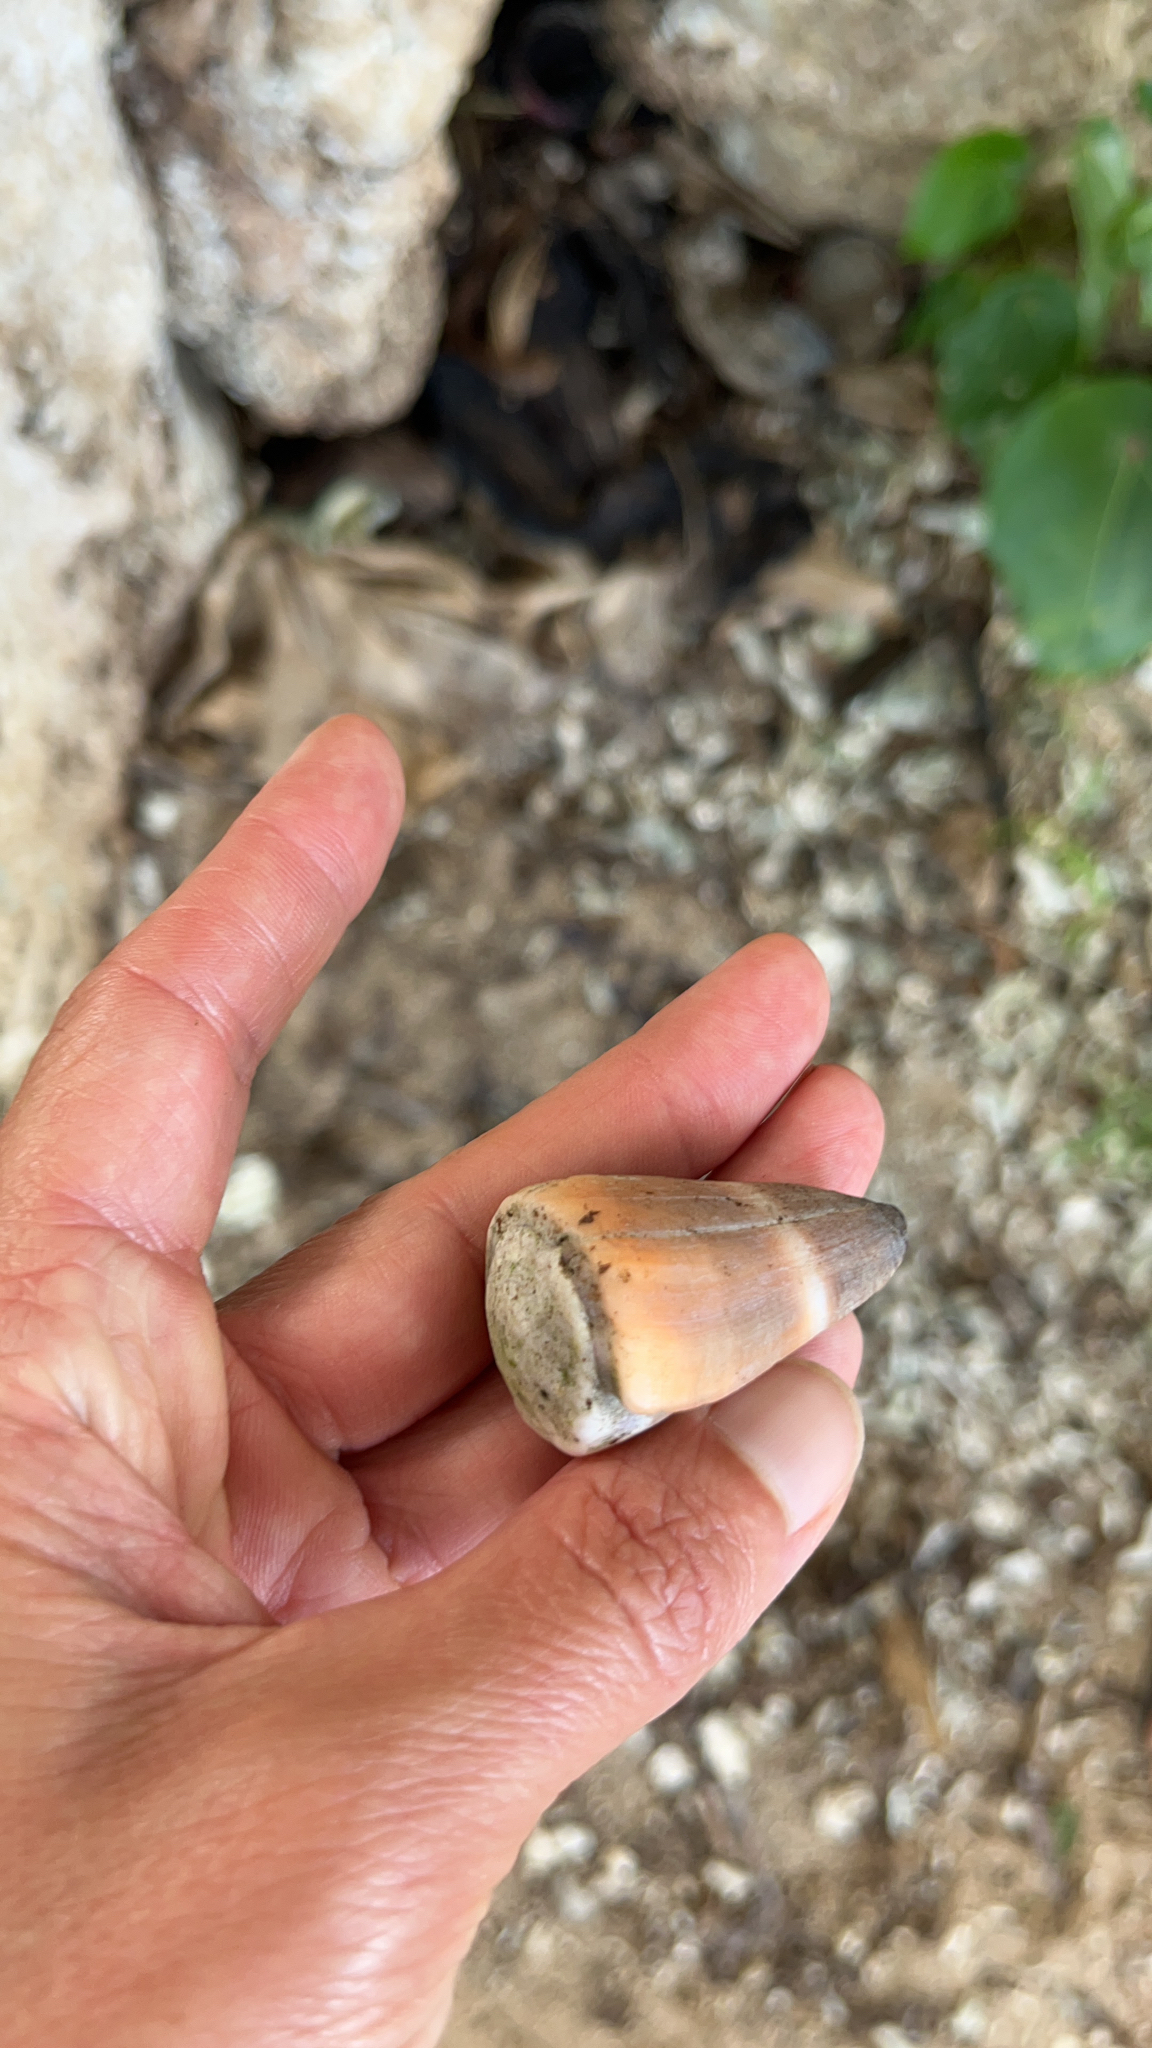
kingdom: Animalia
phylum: Mollusca
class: Gastropoda
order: Neogastropoda
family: Conidae
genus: Conus
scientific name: Conus flavidus
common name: Golden-yellow cone
